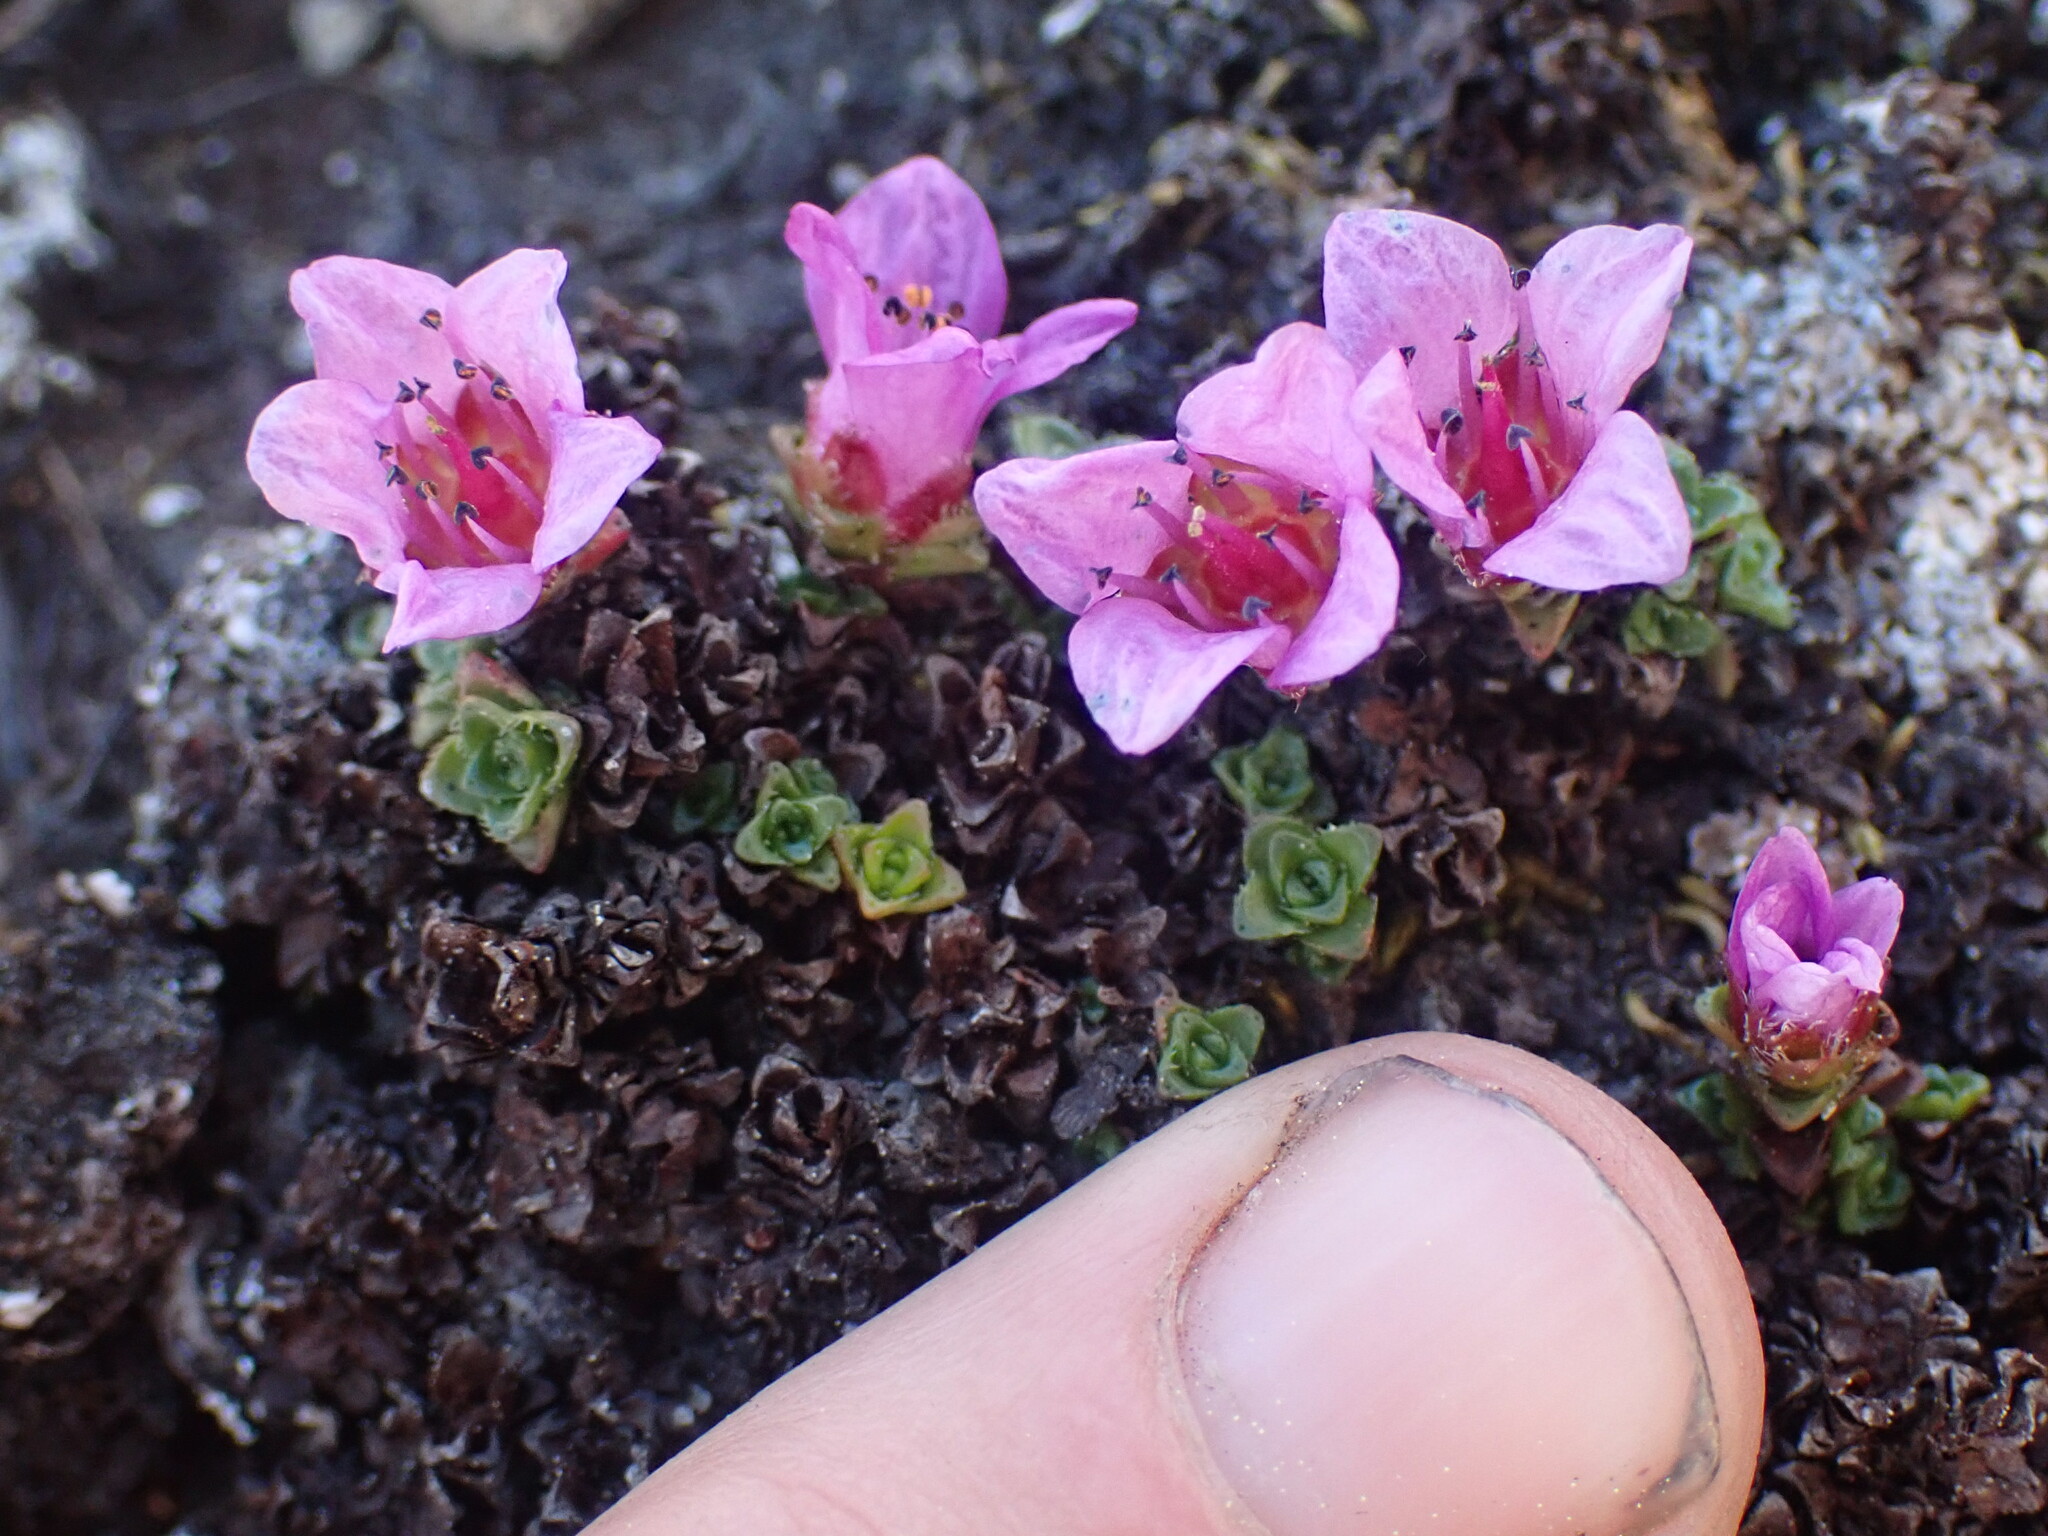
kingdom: Plantae
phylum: Tracheophyta
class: Magnoliopsida
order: Saxifragales
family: Saxifragaceae
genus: Saxifraga
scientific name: Saxifraga oppositifolia
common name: Purple saxifrage
